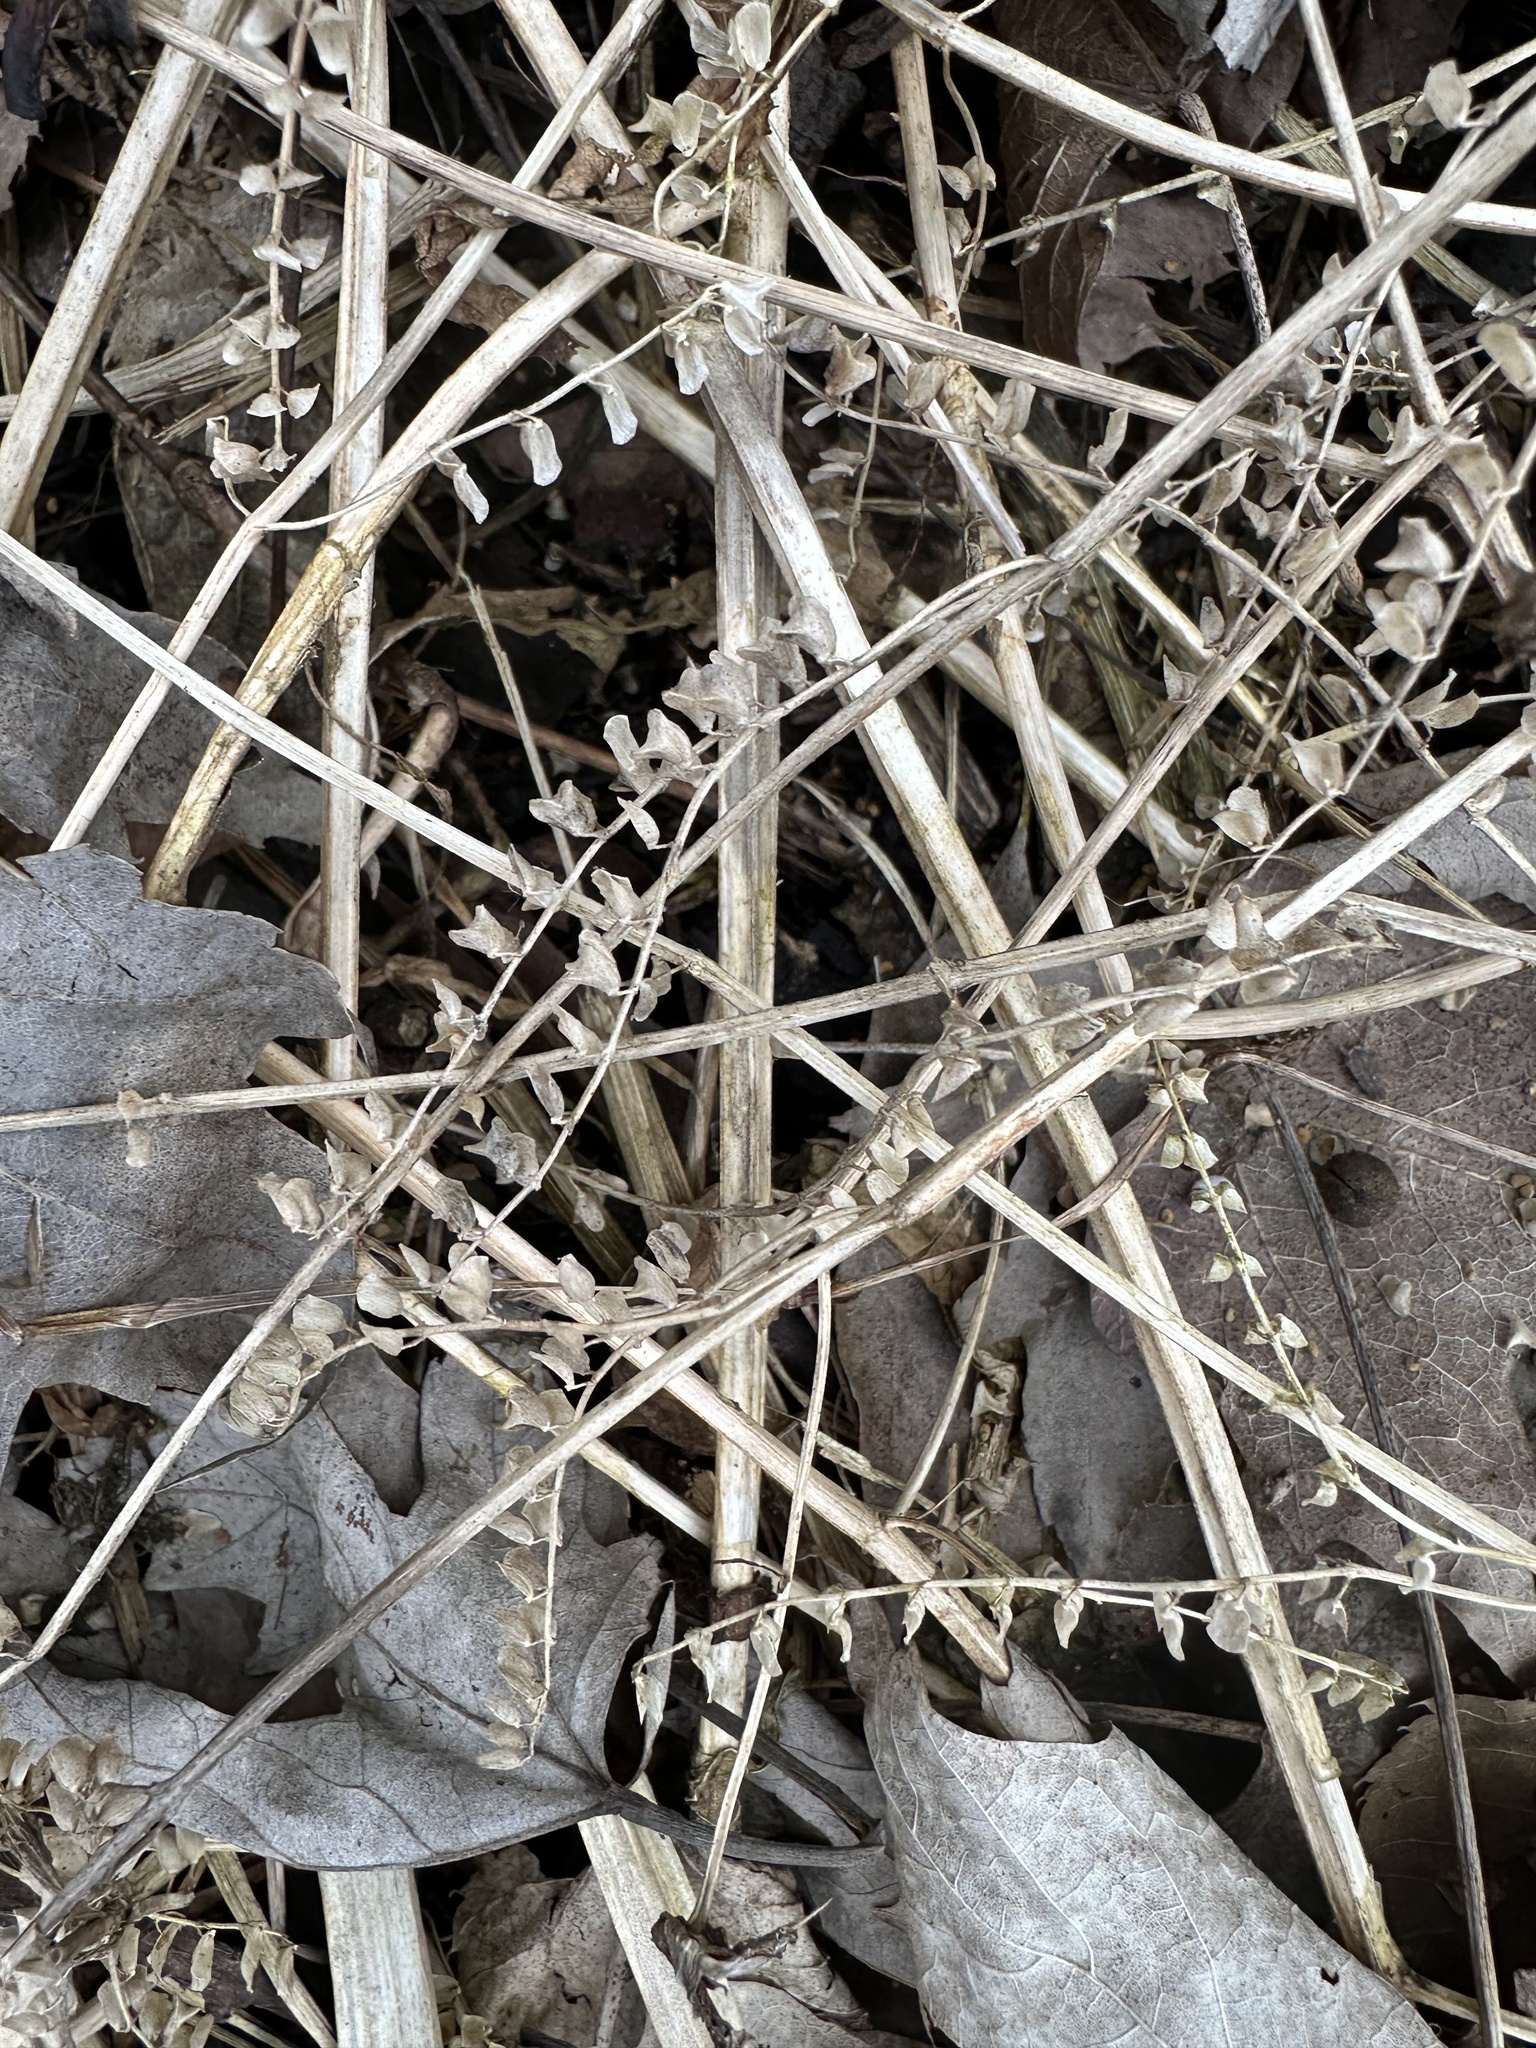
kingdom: Plantae
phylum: Tracheophyta
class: Magnoliopsida
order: Lamiales
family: Lamiaceae
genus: Scutellaria
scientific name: Scutellaria lateriflora
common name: Blue skullcap
